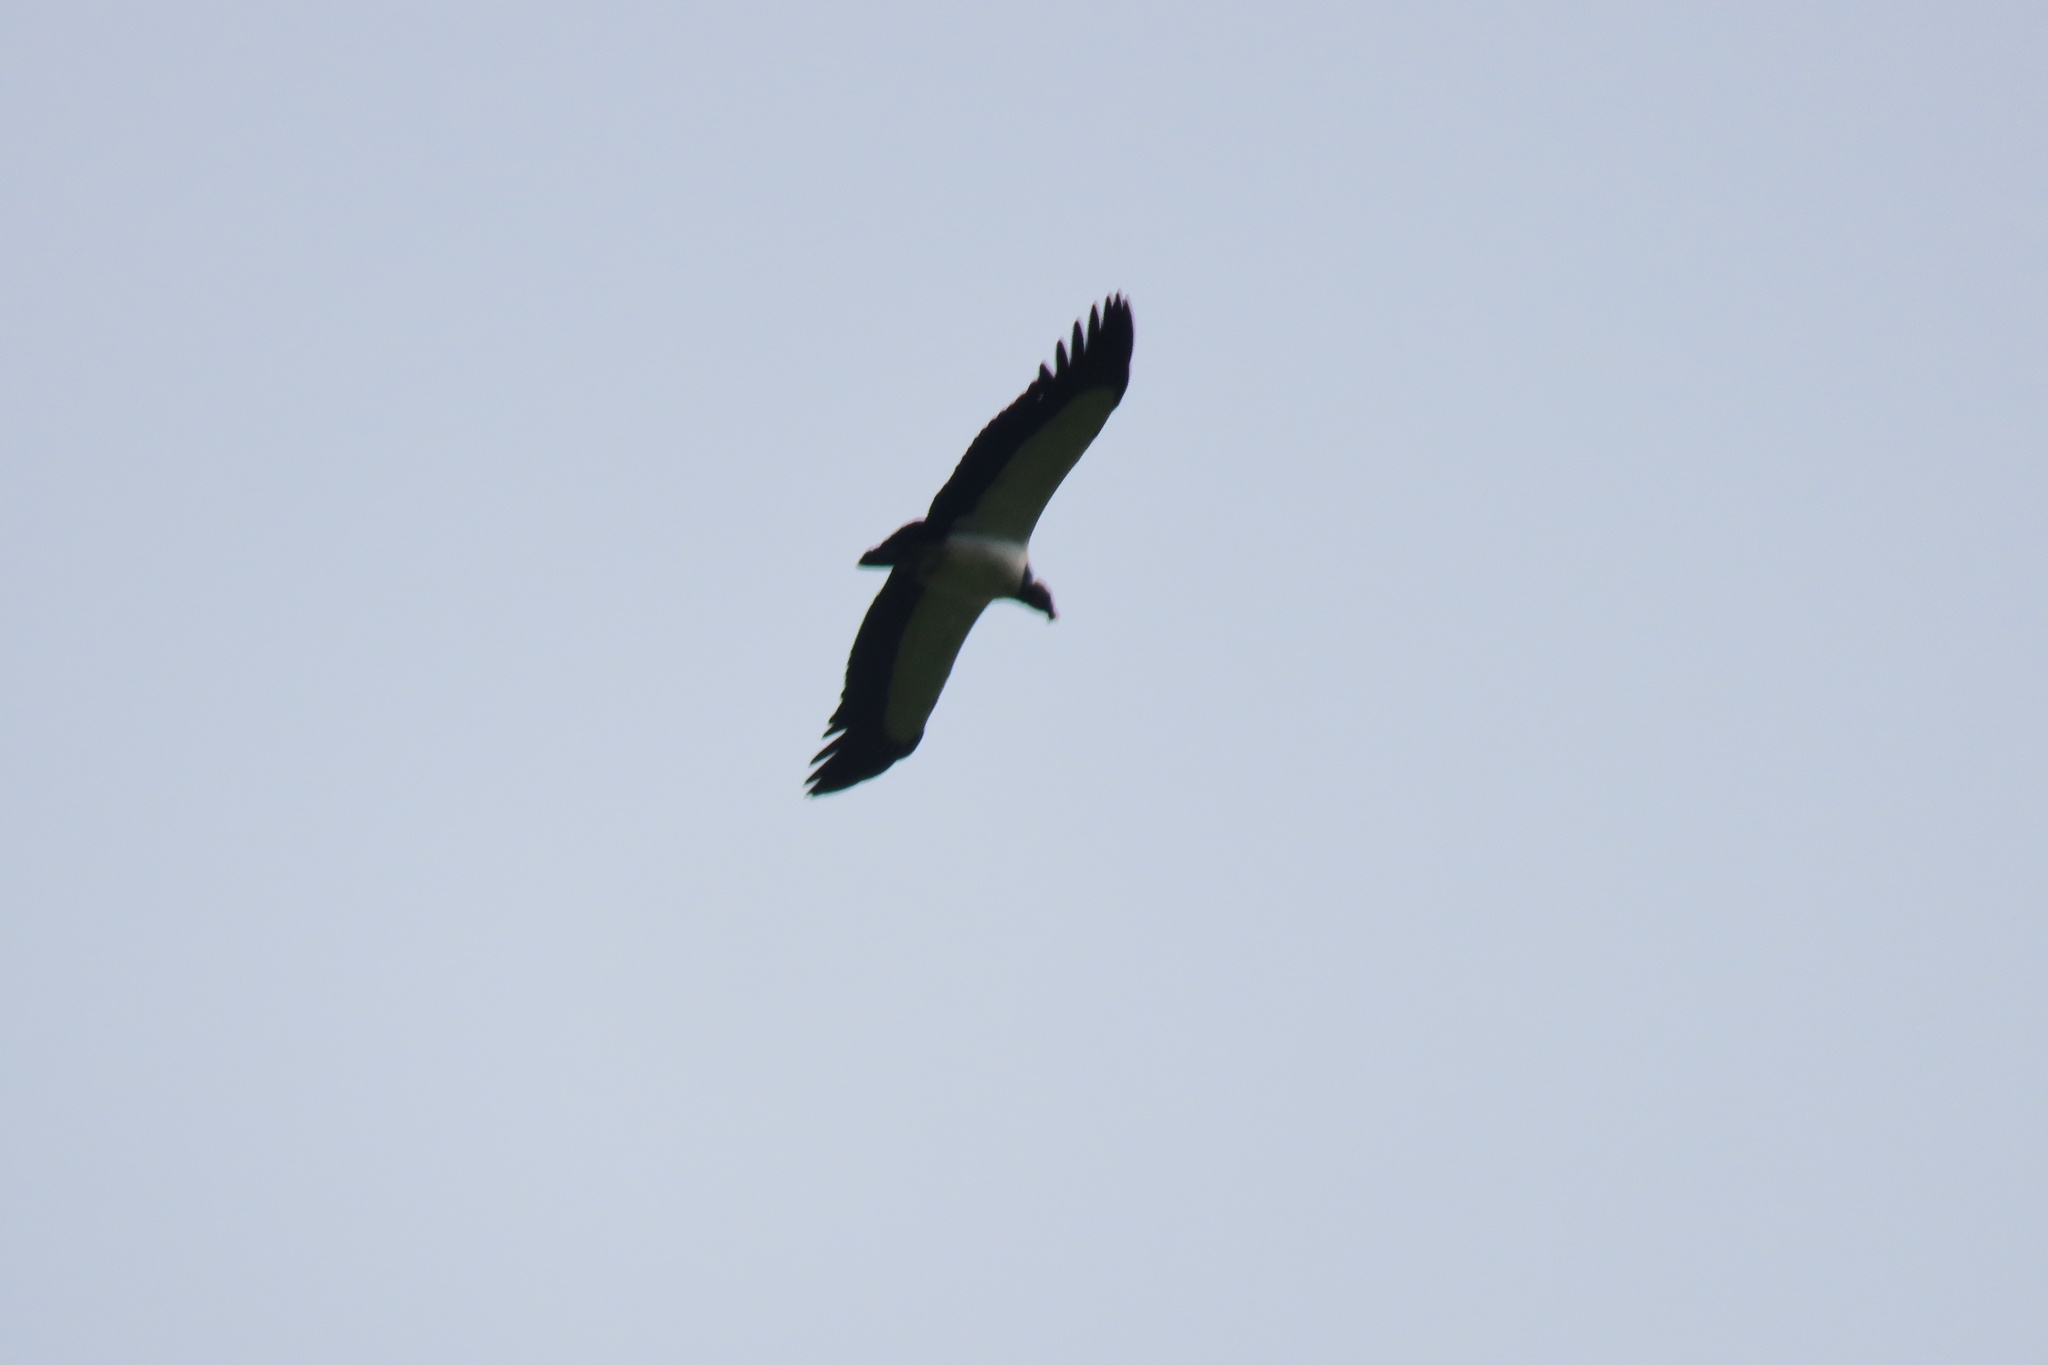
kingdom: Animalia
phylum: Chordata
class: Aves
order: Accipitriformes
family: Cathartidae
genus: Sarcoramphus
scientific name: Sarcoramphus papa
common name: King vulture
